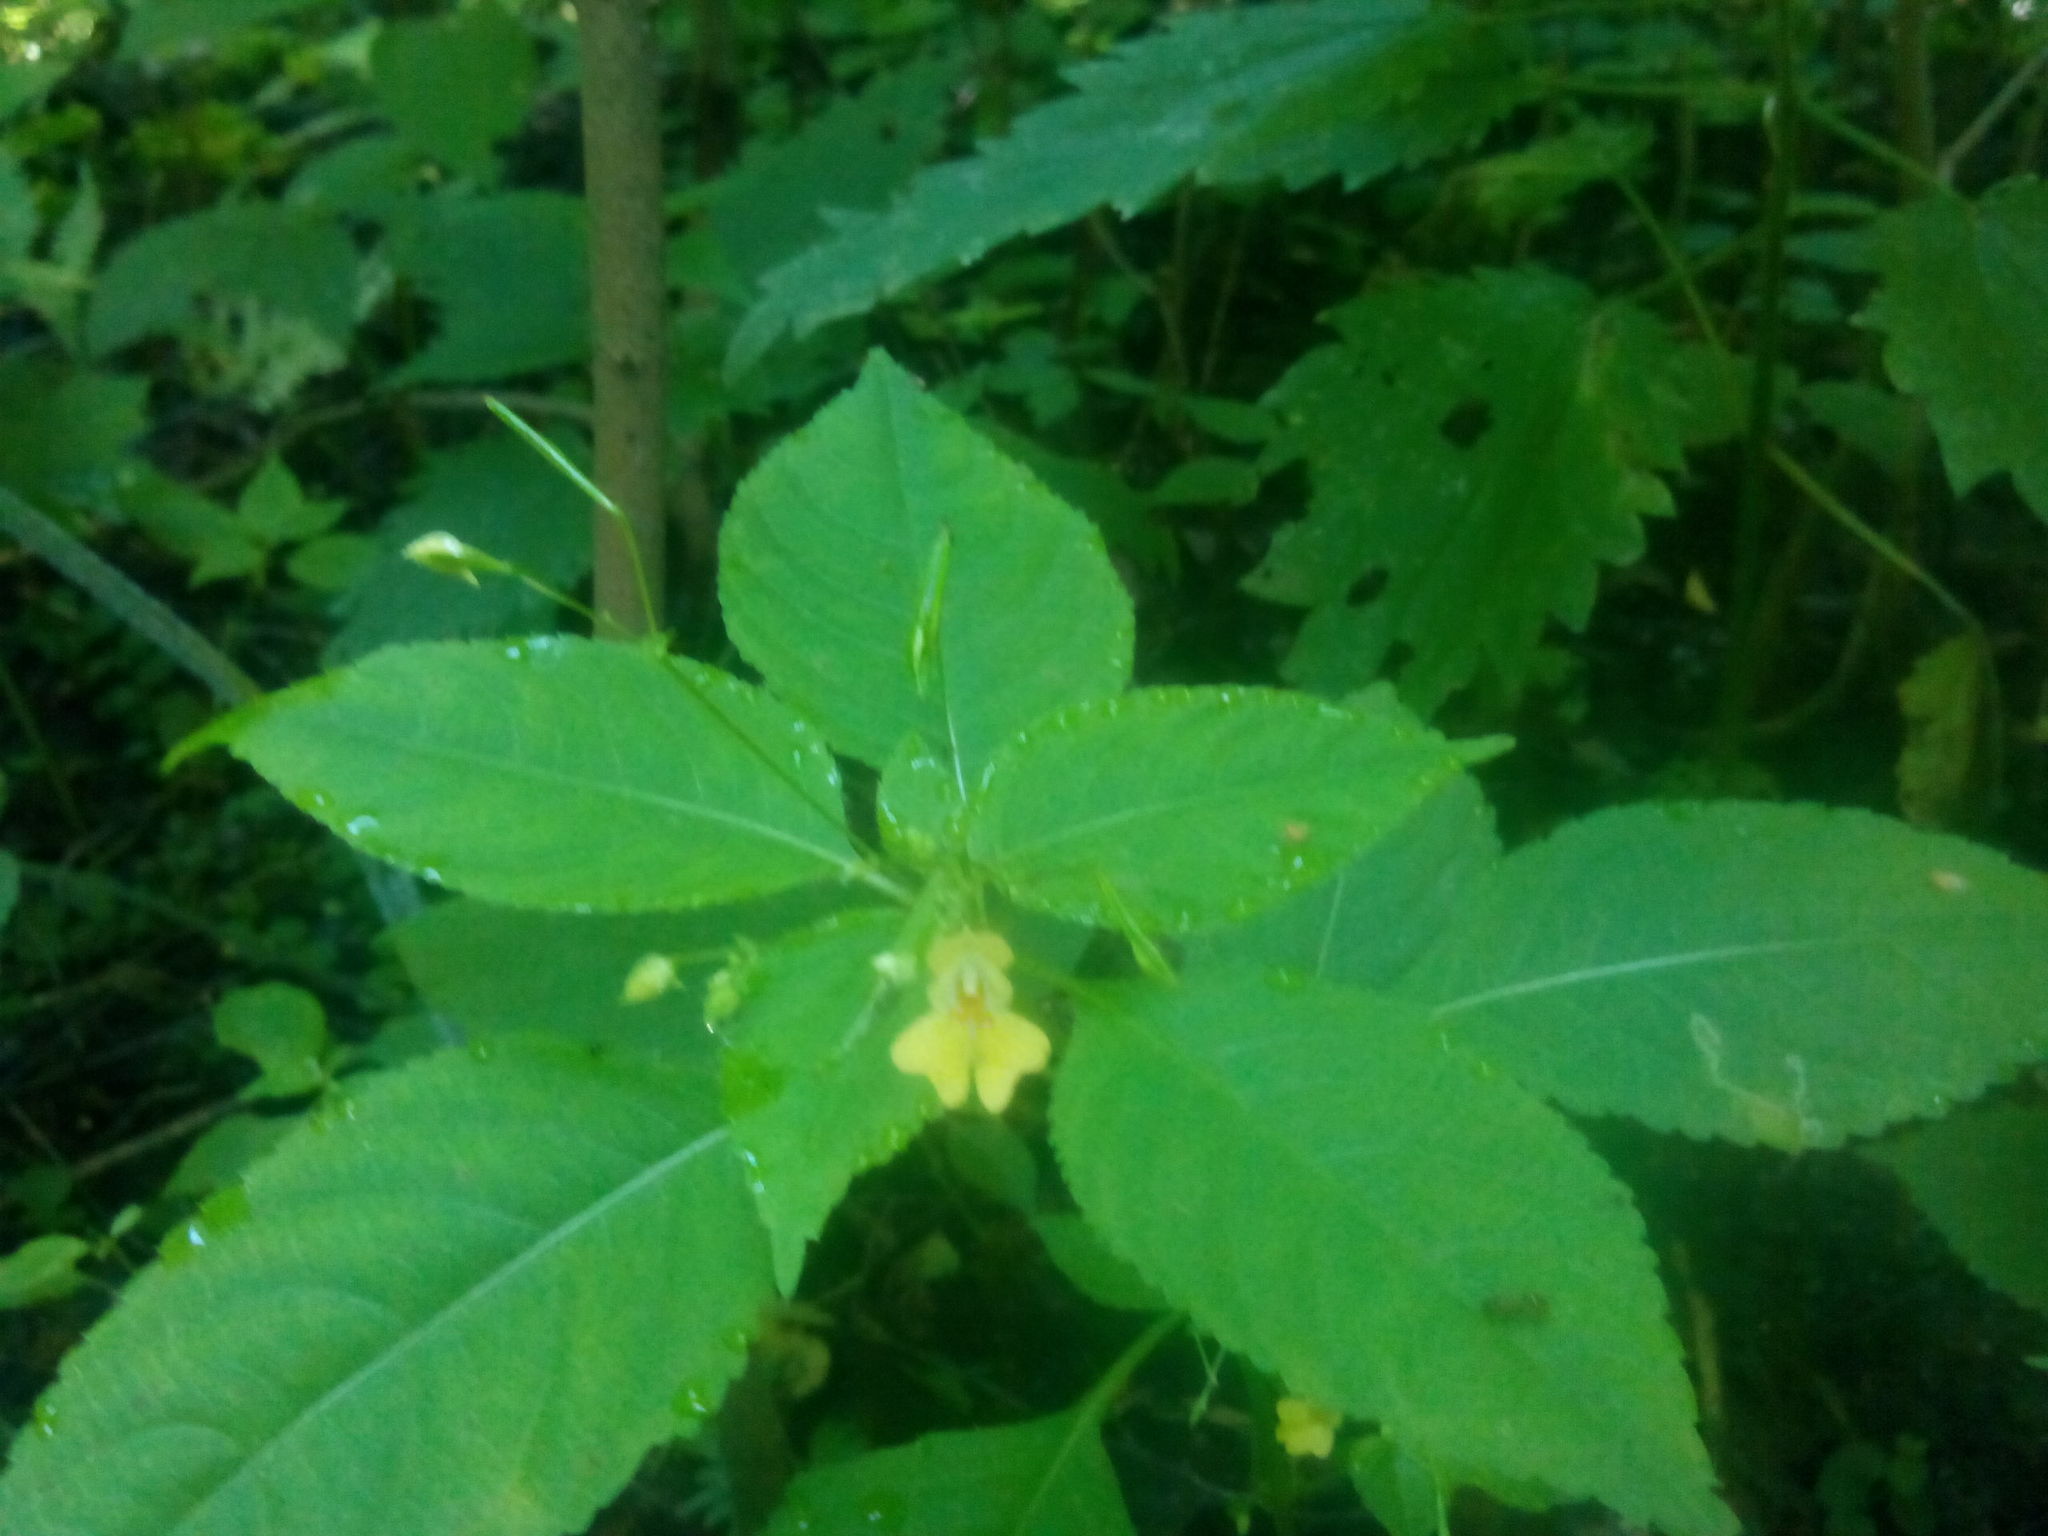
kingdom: Plantae
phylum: Tracheophyta
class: Magnoliopsida
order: Ericales
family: Balsaminaceae
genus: Impatiens
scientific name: Impatiens parviflora
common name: Small balsam
